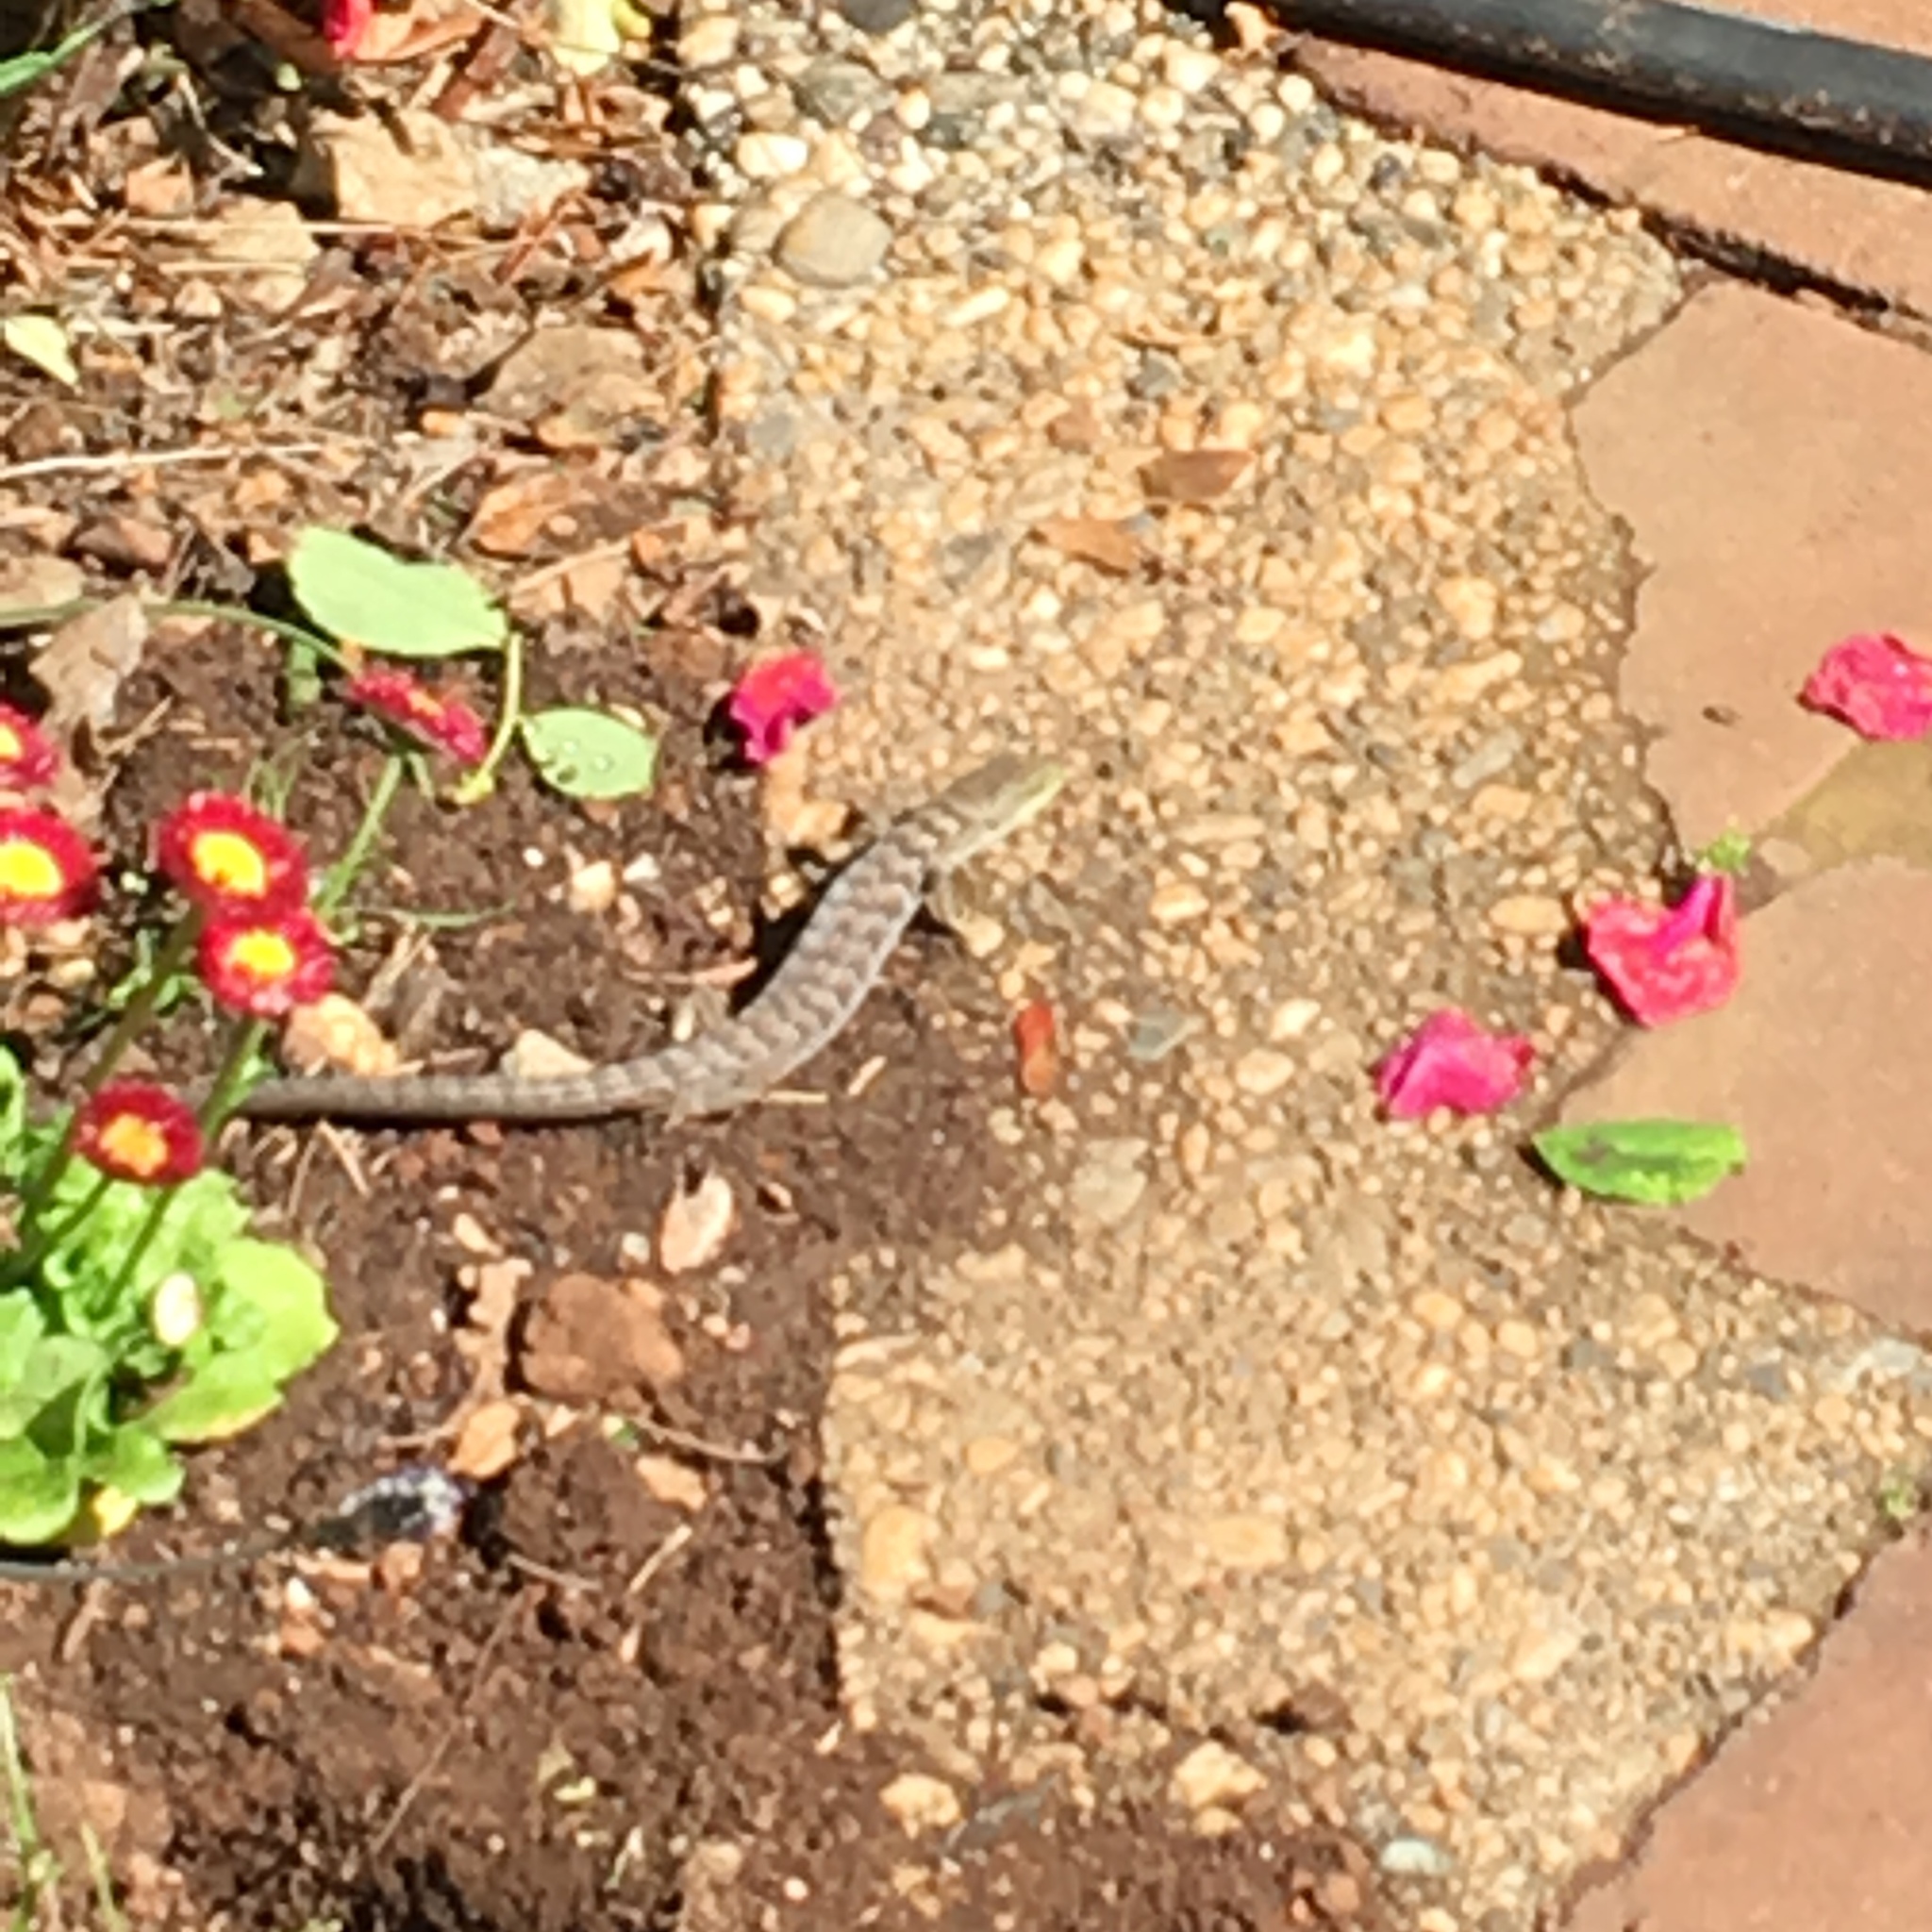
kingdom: Animalia
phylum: Chordata
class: Squamata
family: Anguidae
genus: Elgaria
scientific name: Elgaria multicarinata
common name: Southern alligator lizard
